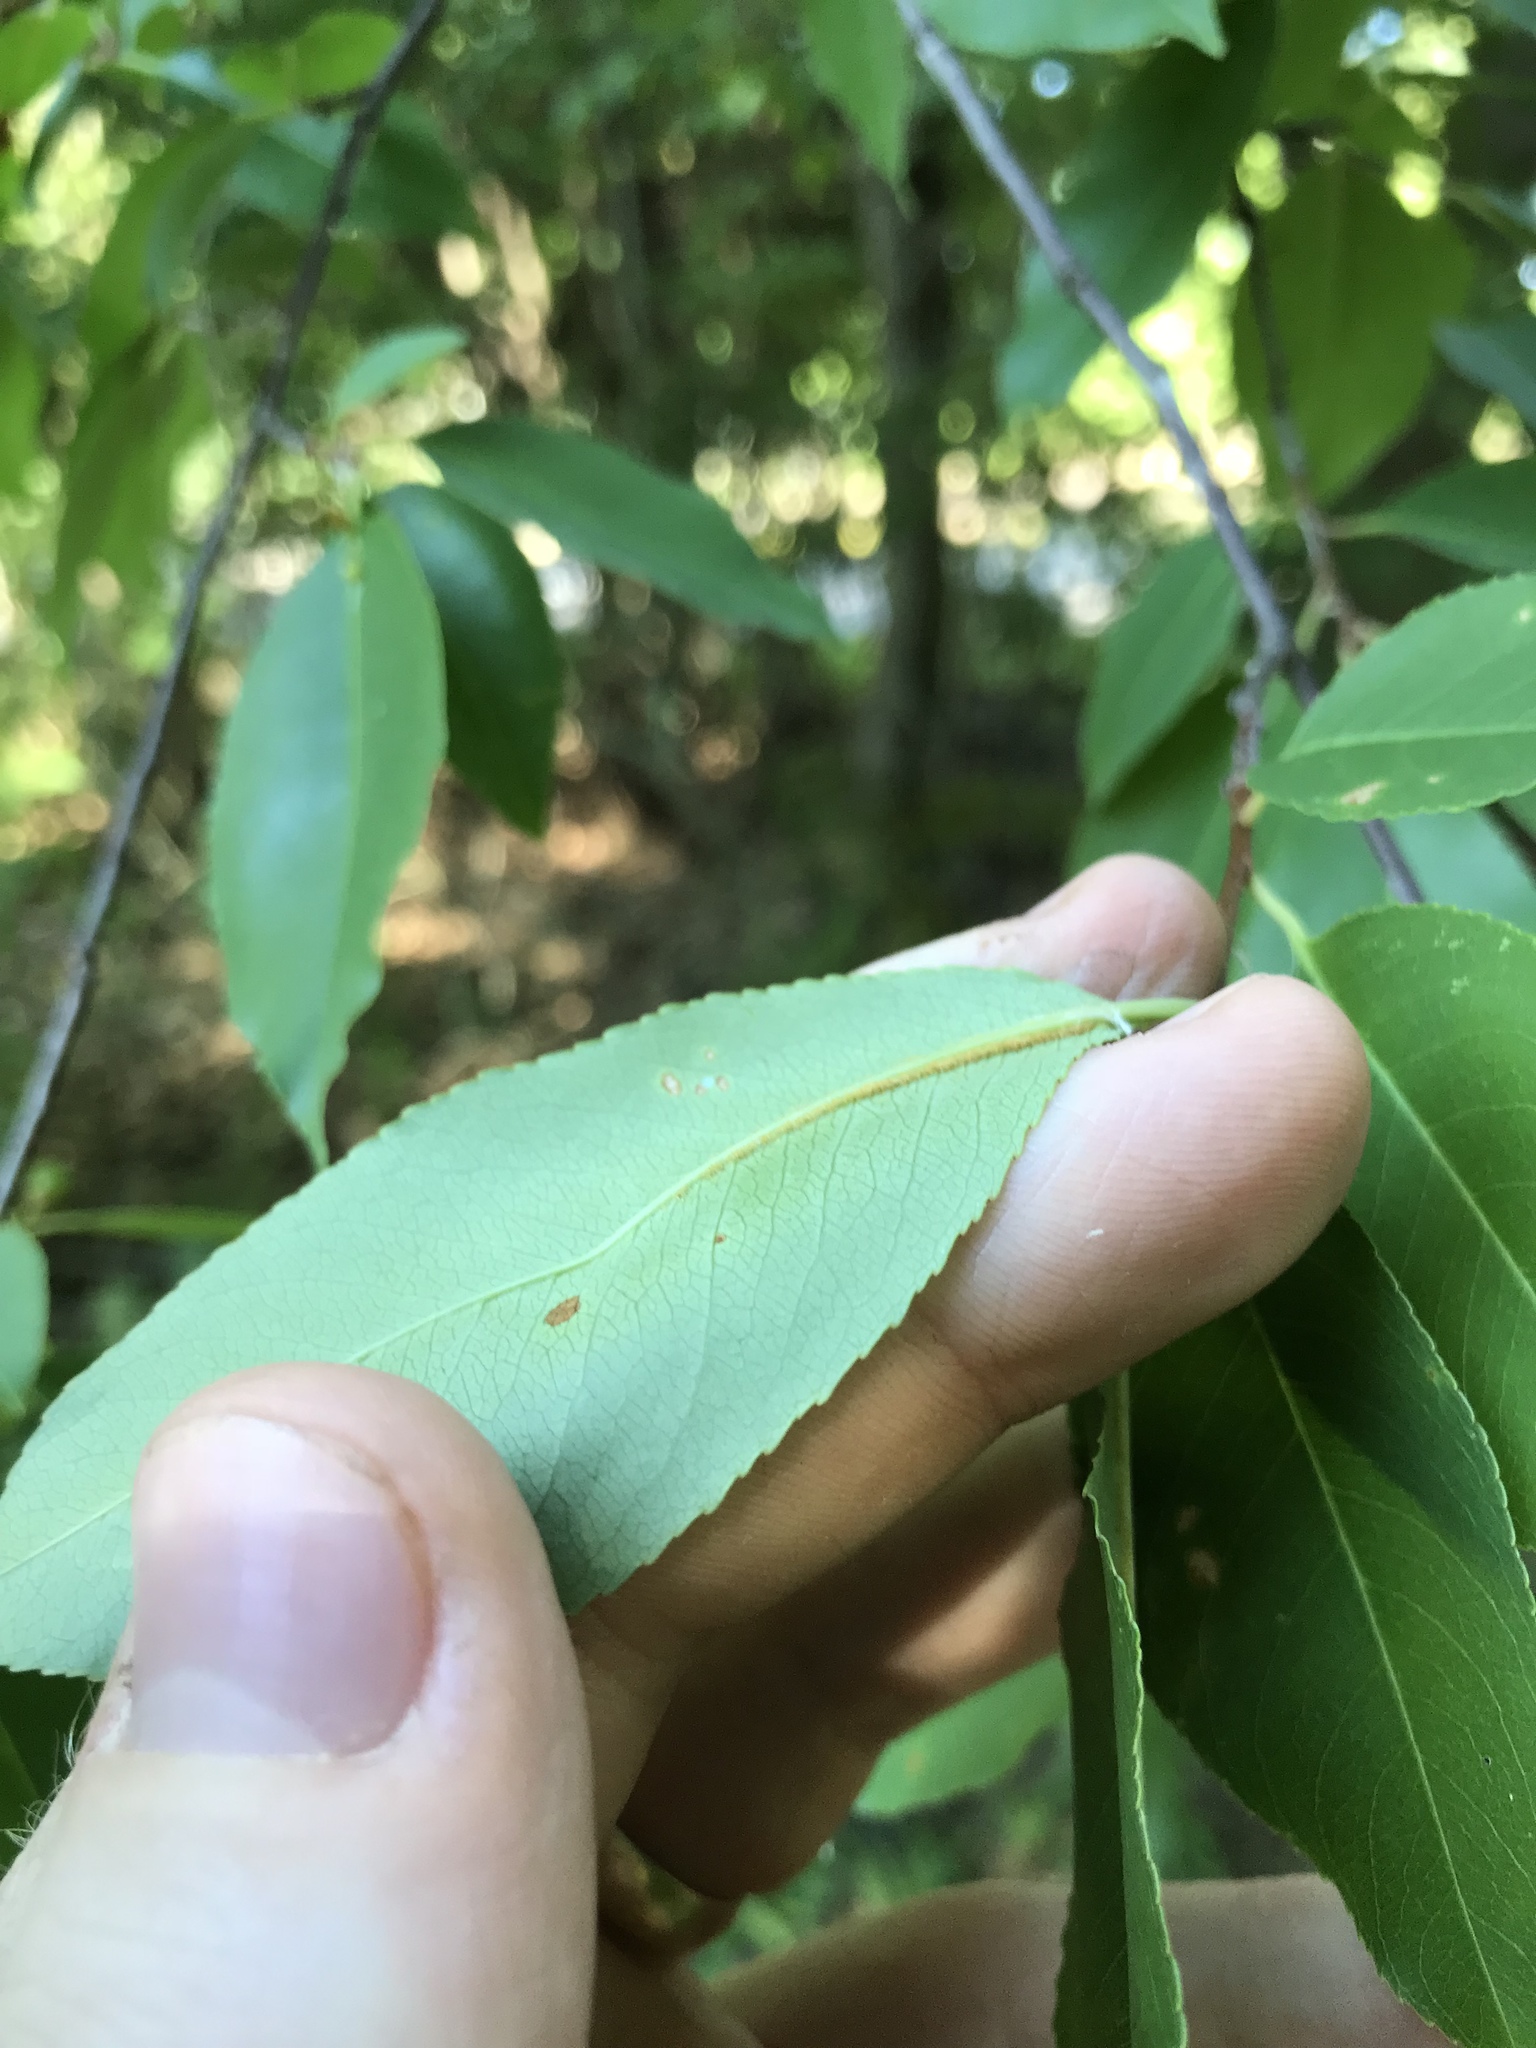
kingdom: Plantae
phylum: Tracheophyta
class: Magnoliopsida
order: Rosales
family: Rosaceae
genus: Prunus
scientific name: Prunus serotina
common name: Black cherry
